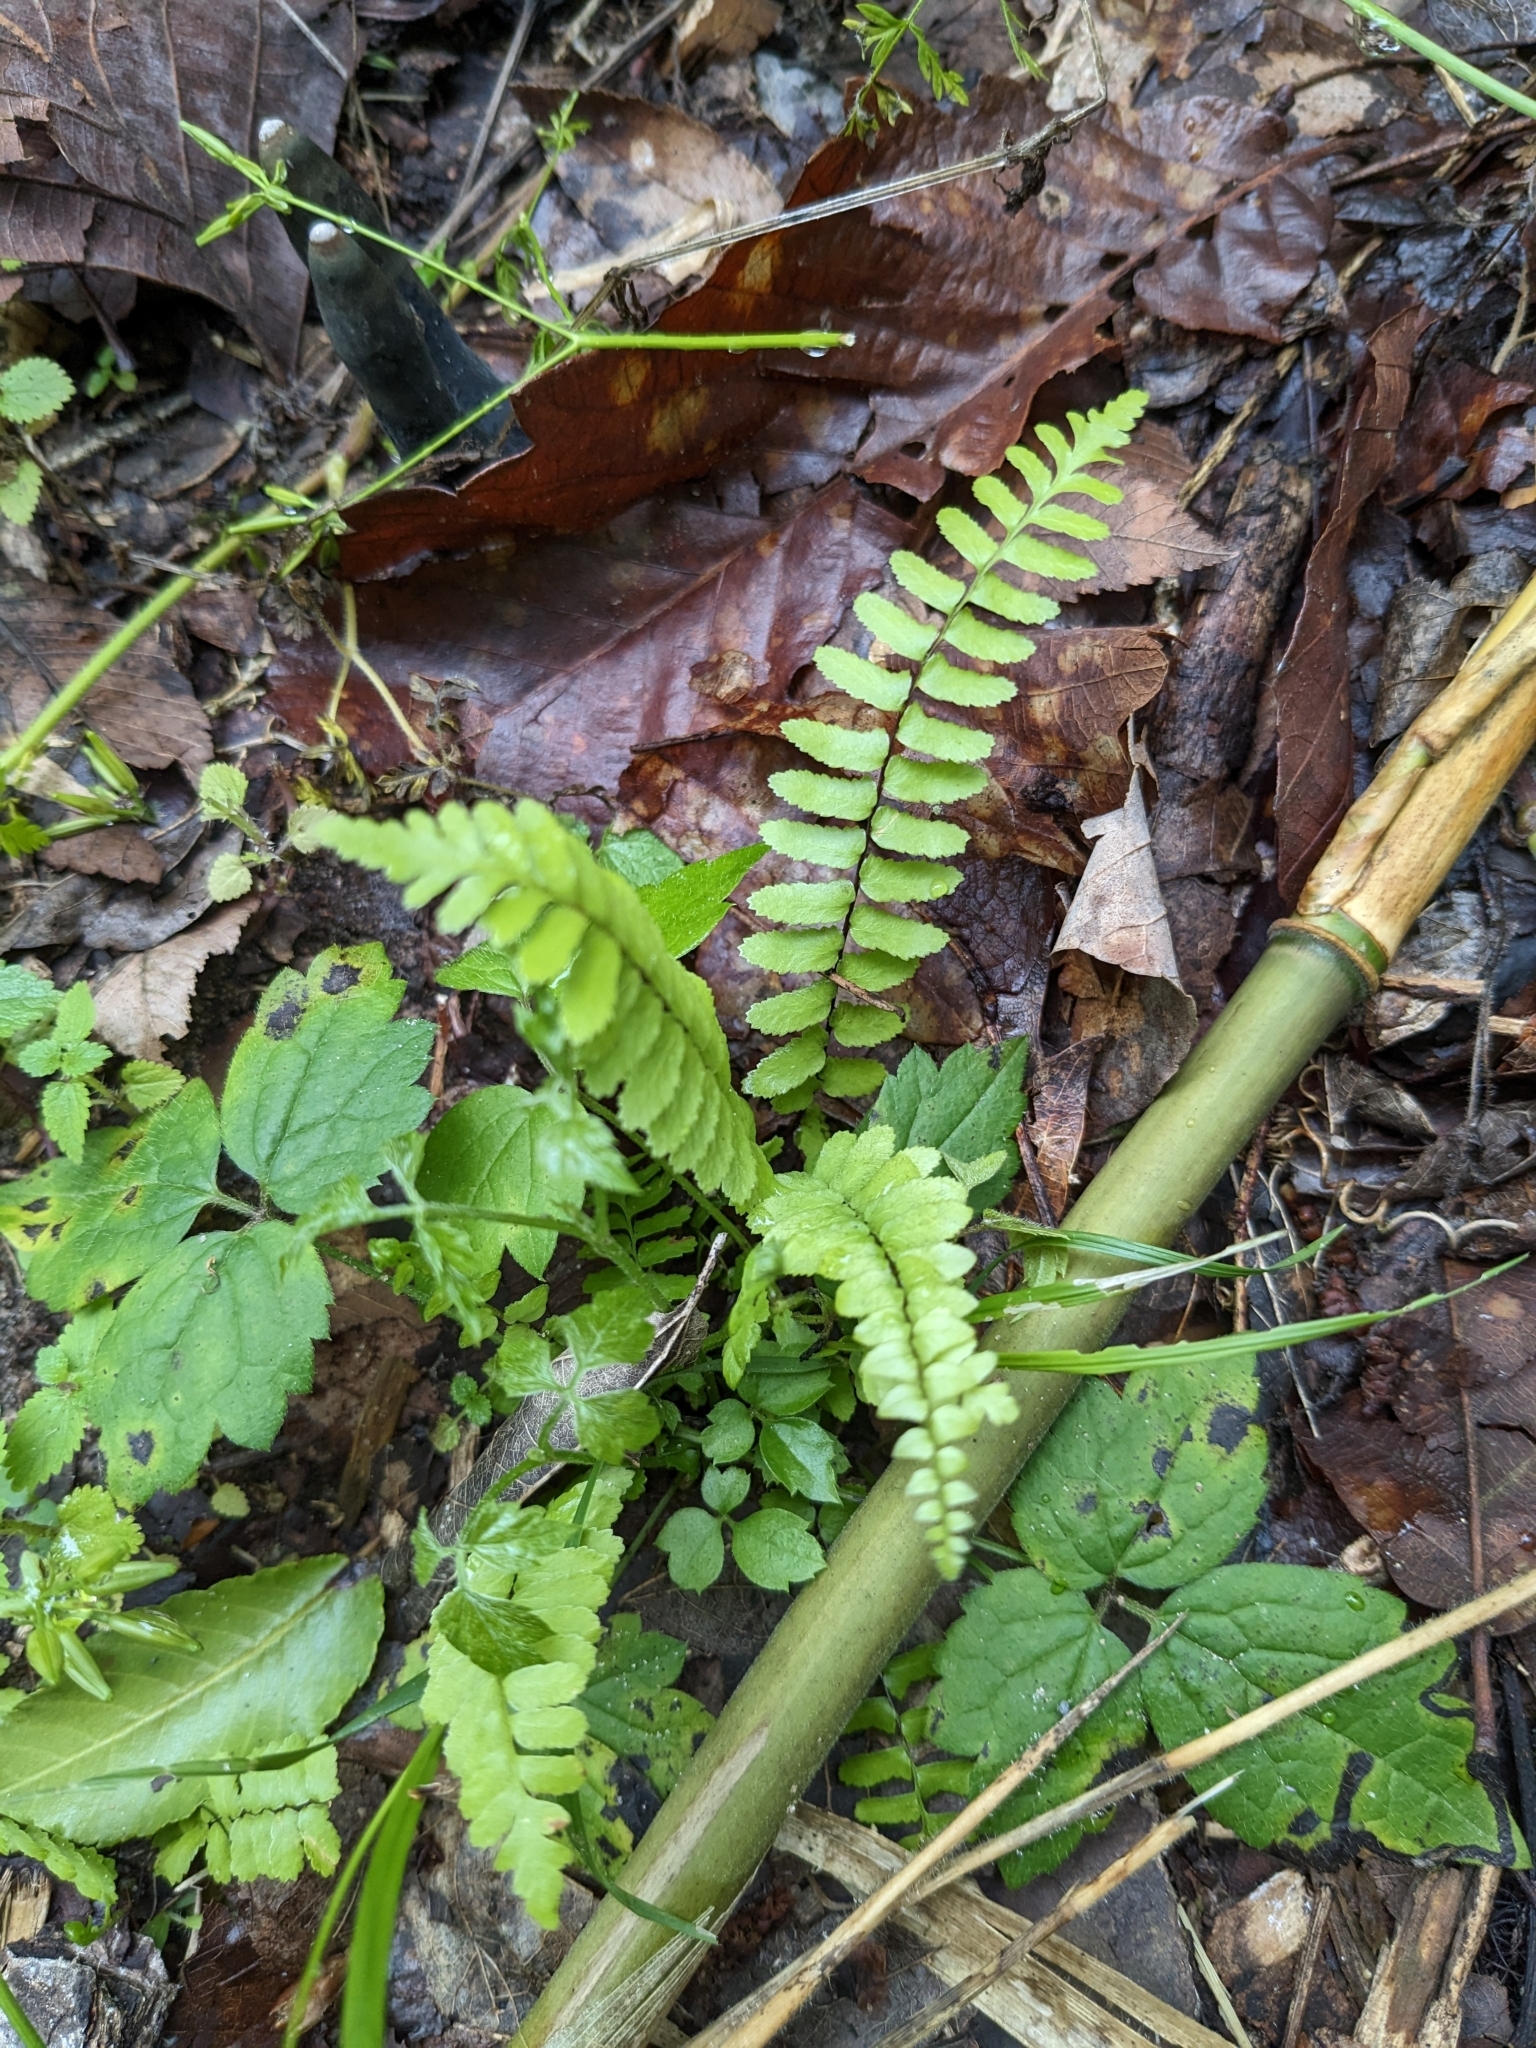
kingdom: Plantae
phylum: Tracheophyta
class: Polypodiopsida
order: Polypodiales
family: Aspleniaceae
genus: Asplenium
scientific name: Asplenium platyneuron
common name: Ebony spleenwort
